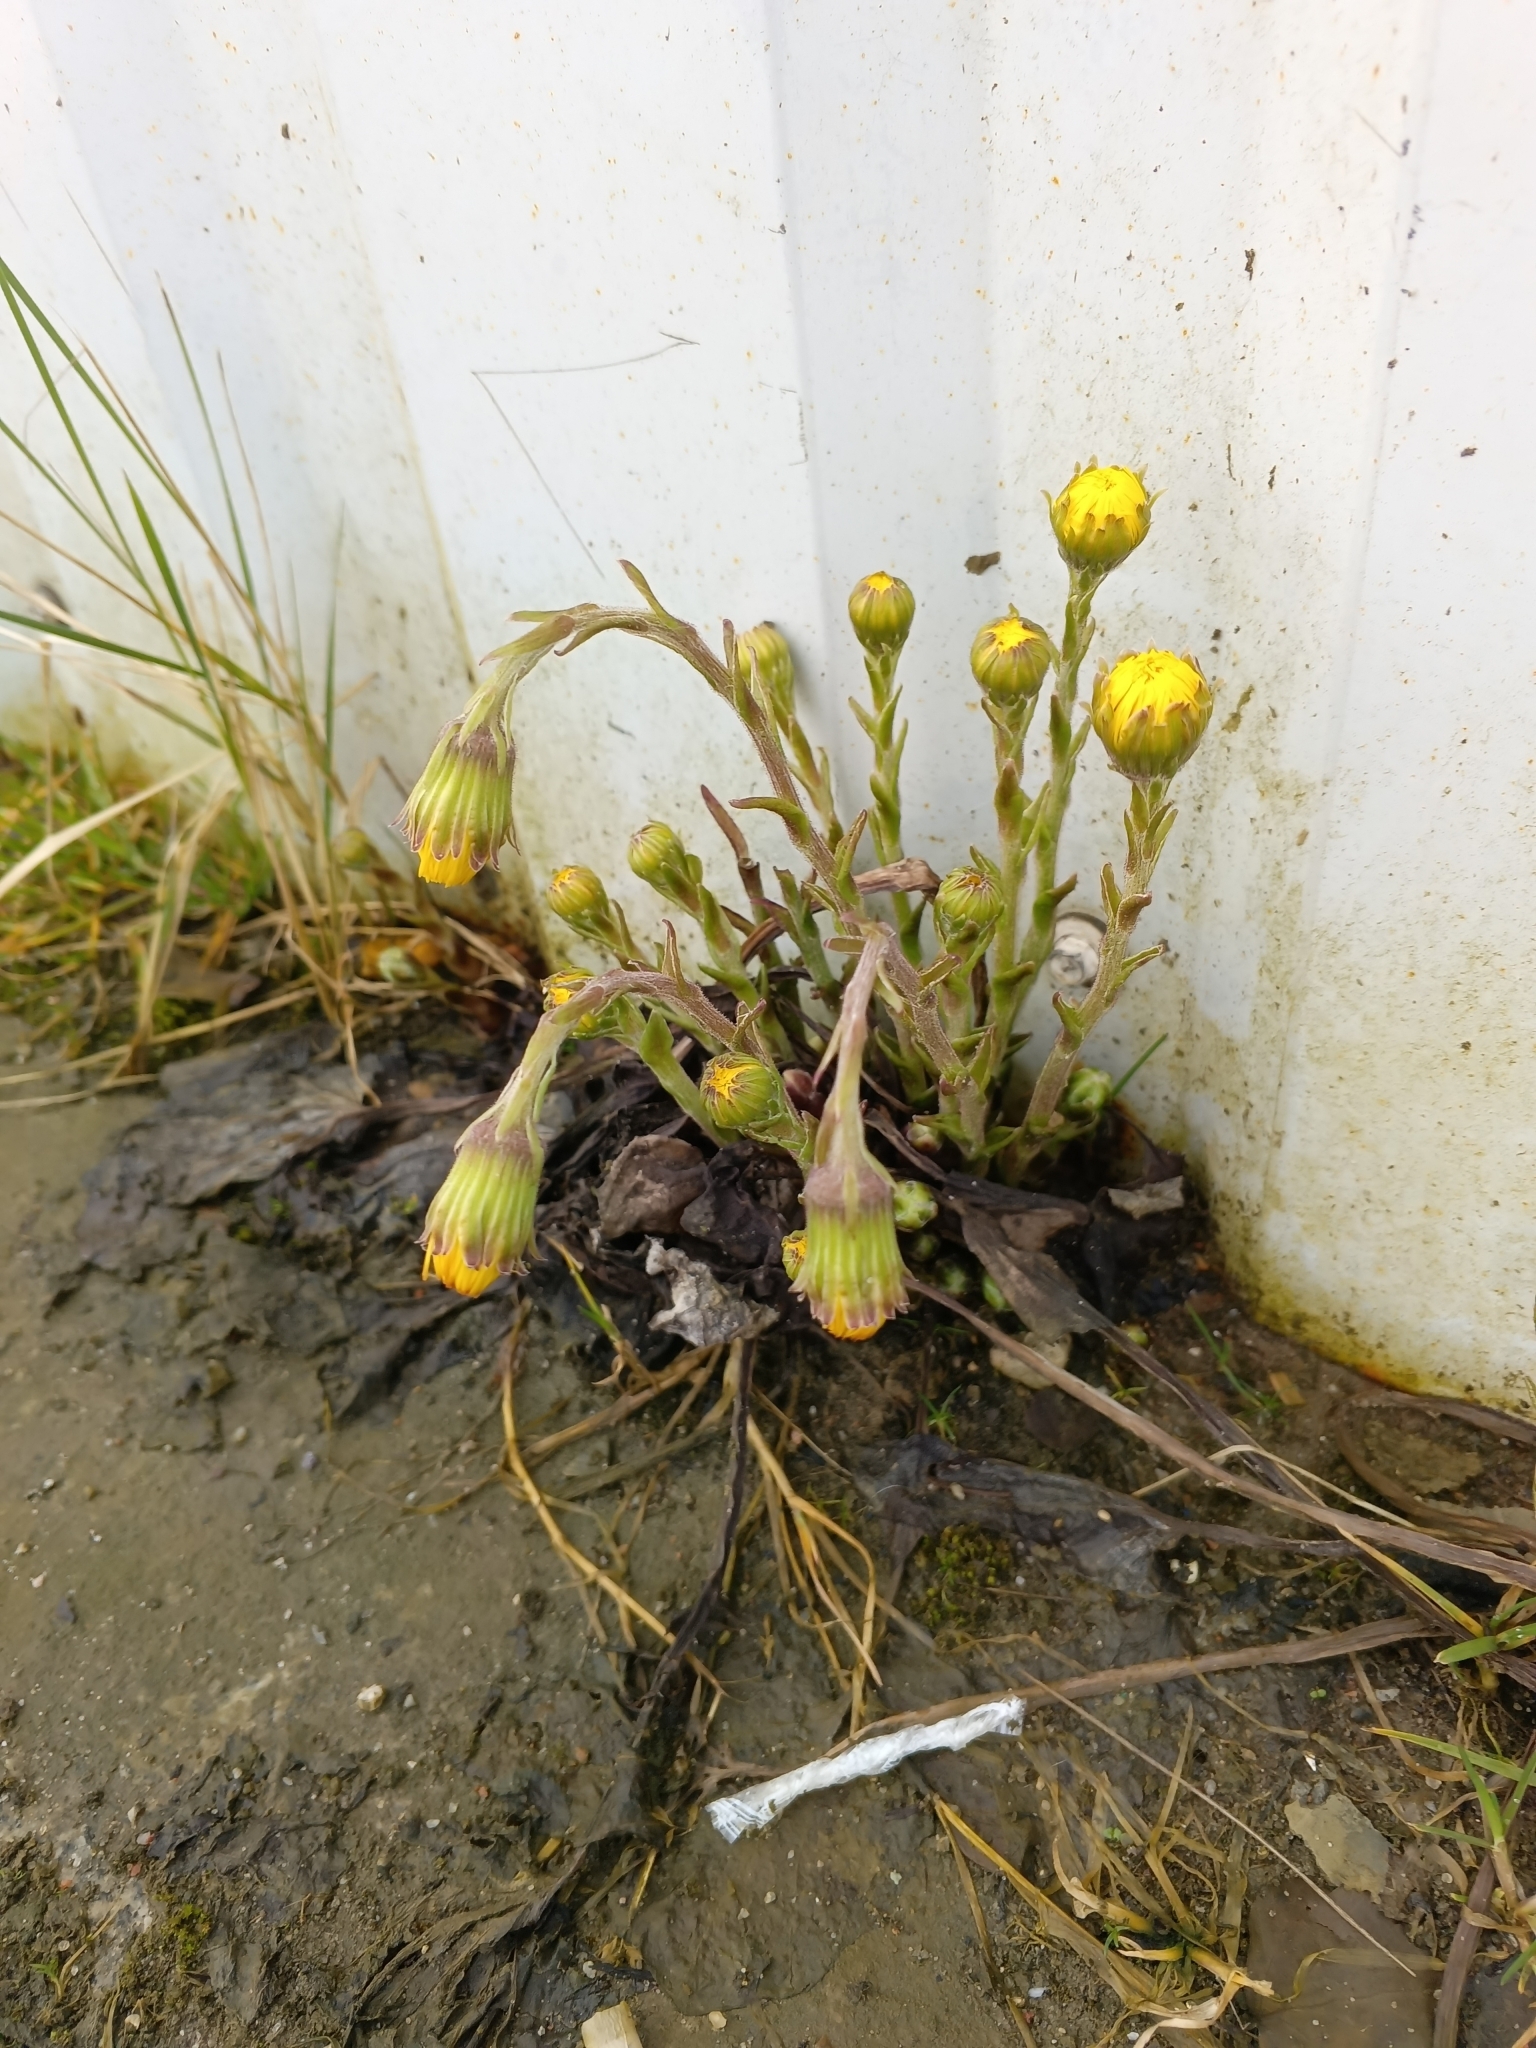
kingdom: Plantae
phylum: Tracheophyta
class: Magnoliopsida
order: Asterales
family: Asteraceae
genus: Tussilago
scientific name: Tussilago farfara
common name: Coltsfoot
